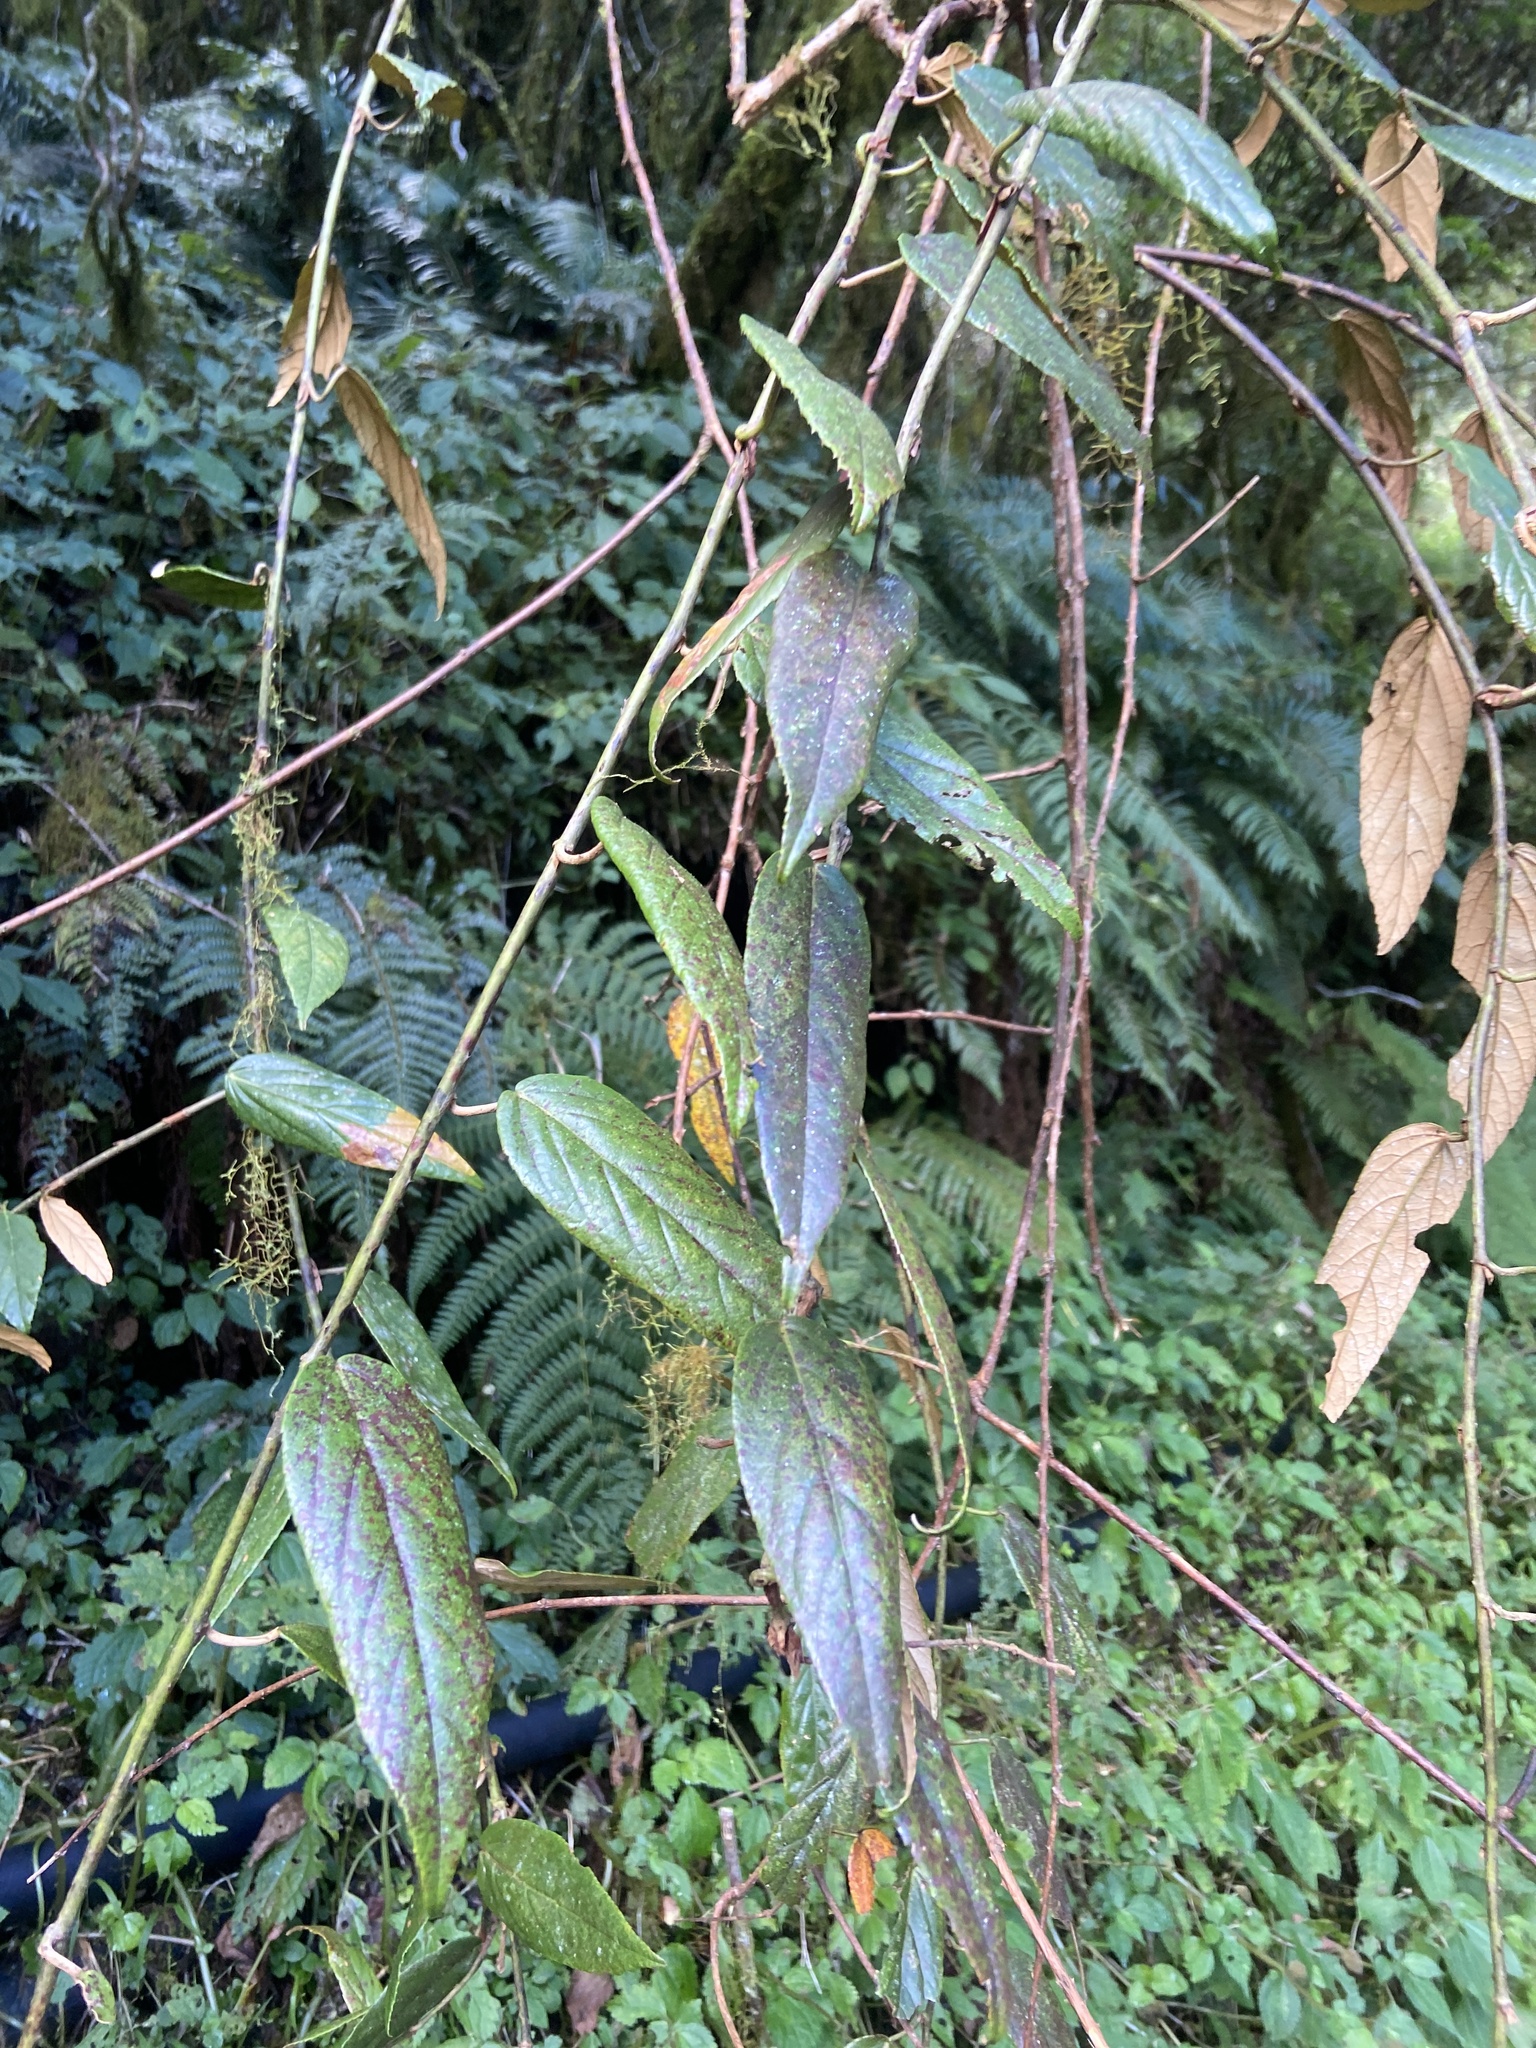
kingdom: Plantae
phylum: Tracheophyta
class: Magnoliopsida
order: Rosales
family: Rosaceae
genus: Rubus
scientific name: Rubus liui
